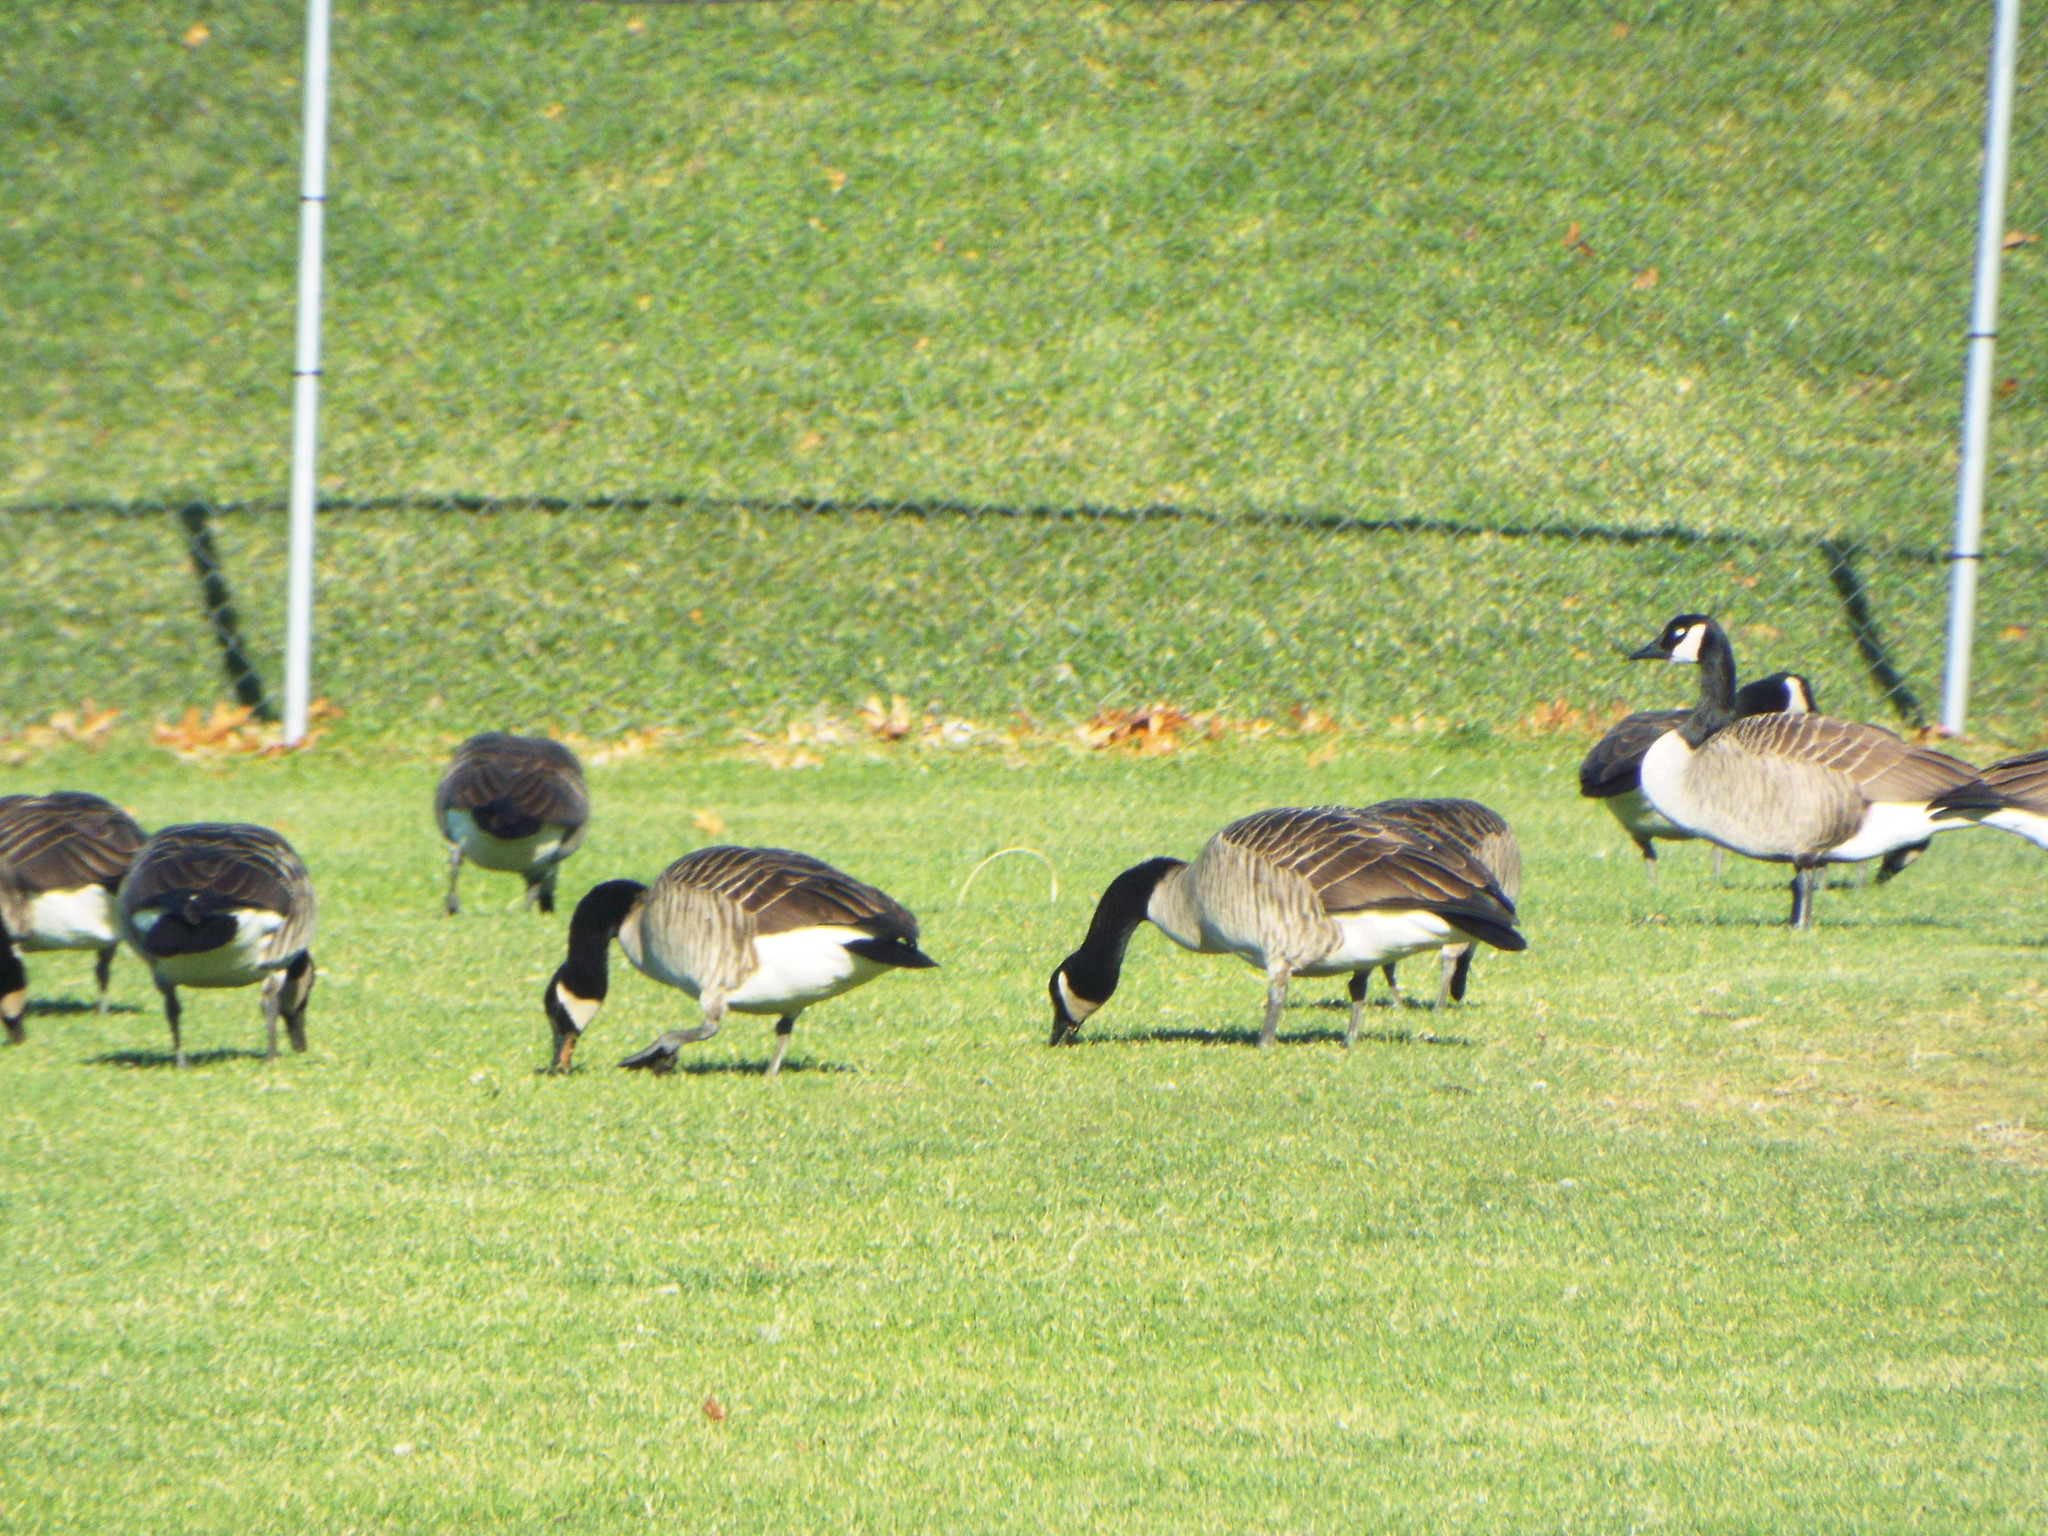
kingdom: Animalia
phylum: Chordata
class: Aves
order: Anseriformes
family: Anatidae
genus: Branta
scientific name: Branta canadensis
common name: Canada goose
